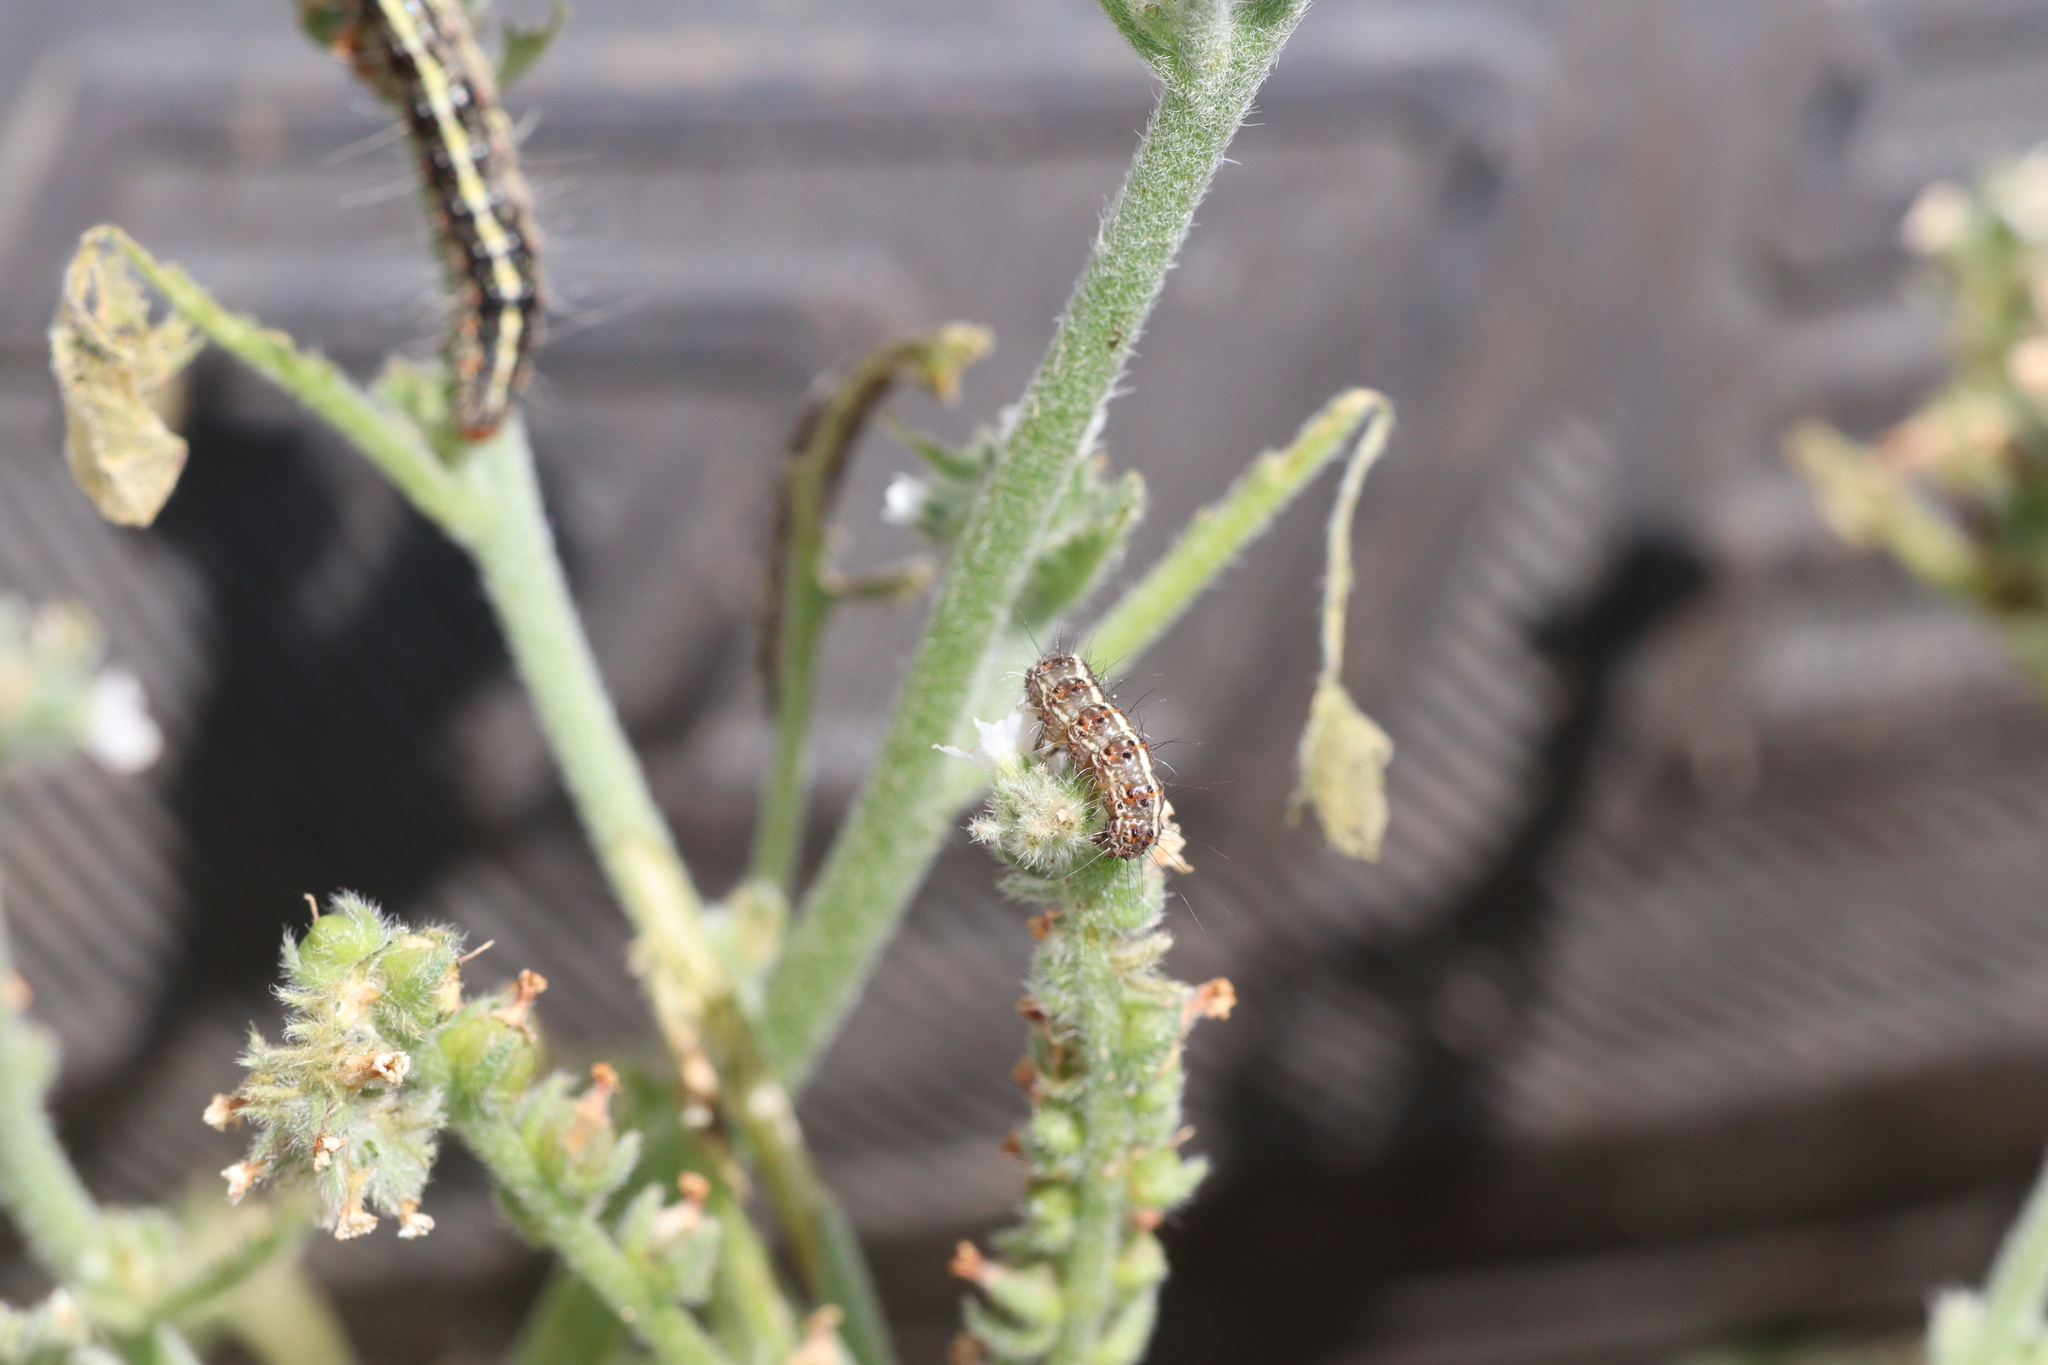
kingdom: Animalia
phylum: Arthropoda
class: Insecta
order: Lepidoptera
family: Erebidae
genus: Utetheisa
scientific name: Utetheisa pulchelloides
